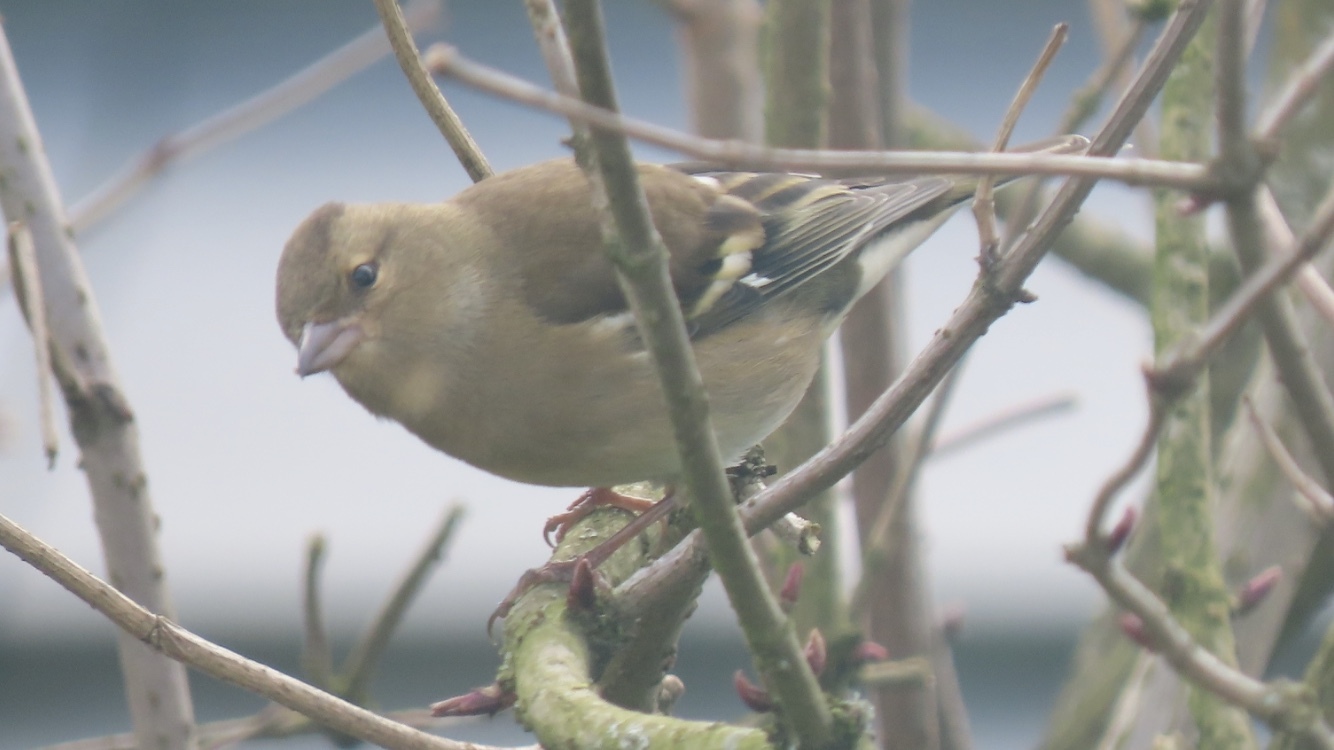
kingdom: Animalia
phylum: Chordata
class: Aves
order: Passeriformes
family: Fringillidae
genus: Fringilla
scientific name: Fringilla coelebs
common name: Common chaffinch
